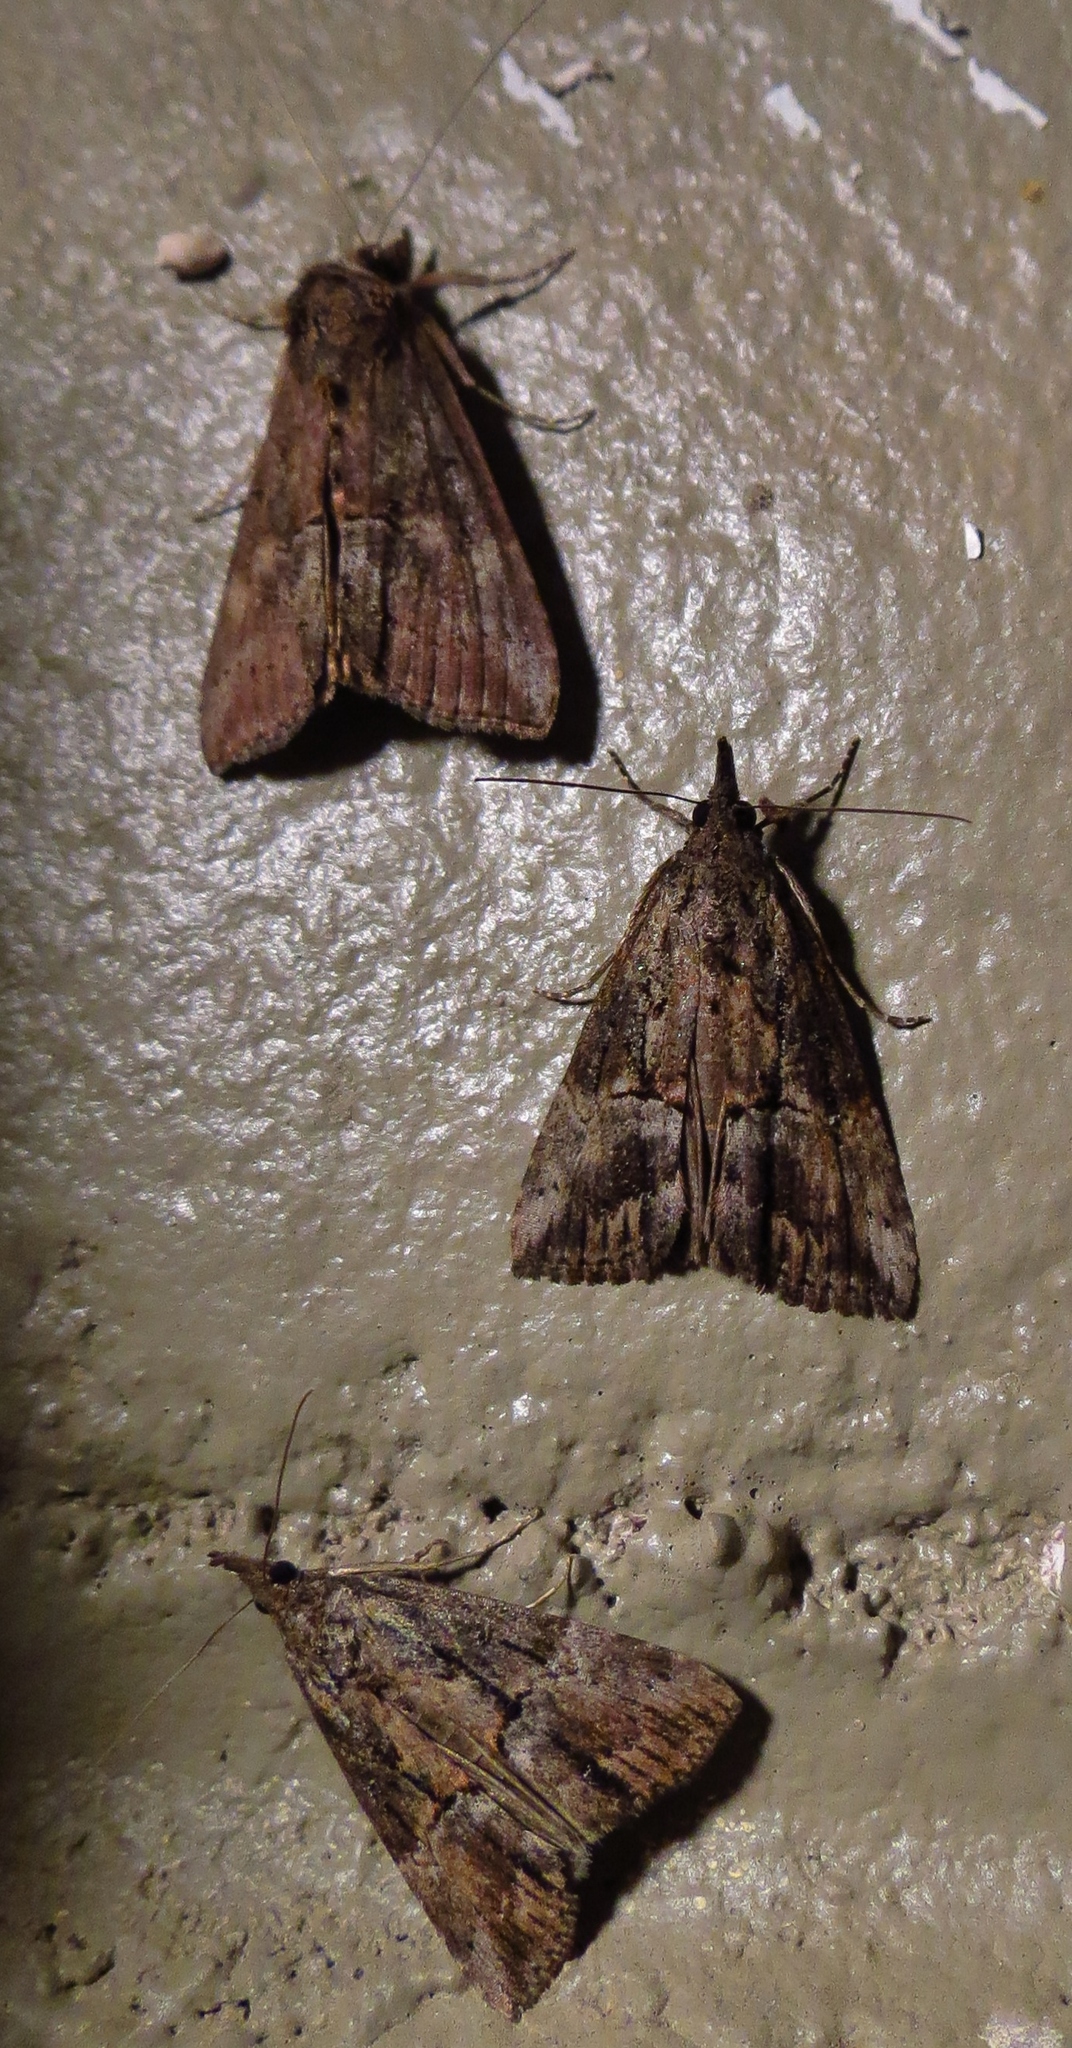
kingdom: Animalia
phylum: Arthropoda
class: Insecta
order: Lepidoptera
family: Erebidae
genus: Hypena
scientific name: Hypena scabra
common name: Green cloverworm
